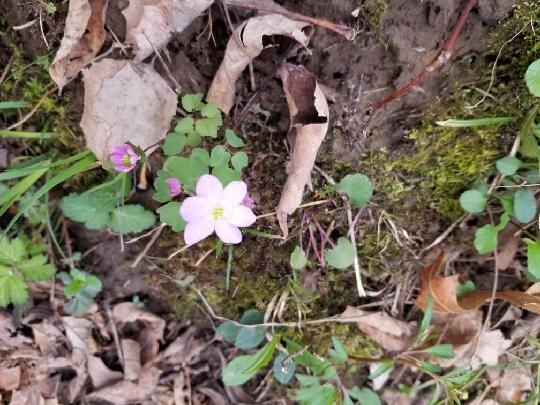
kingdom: Plantae
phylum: Tracheophyta
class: Magnoliopsida
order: Ranunculales
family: Ranunculaceae
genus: Thalictrum
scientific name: Thalictrum thalictroides
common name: Rue-anemone
